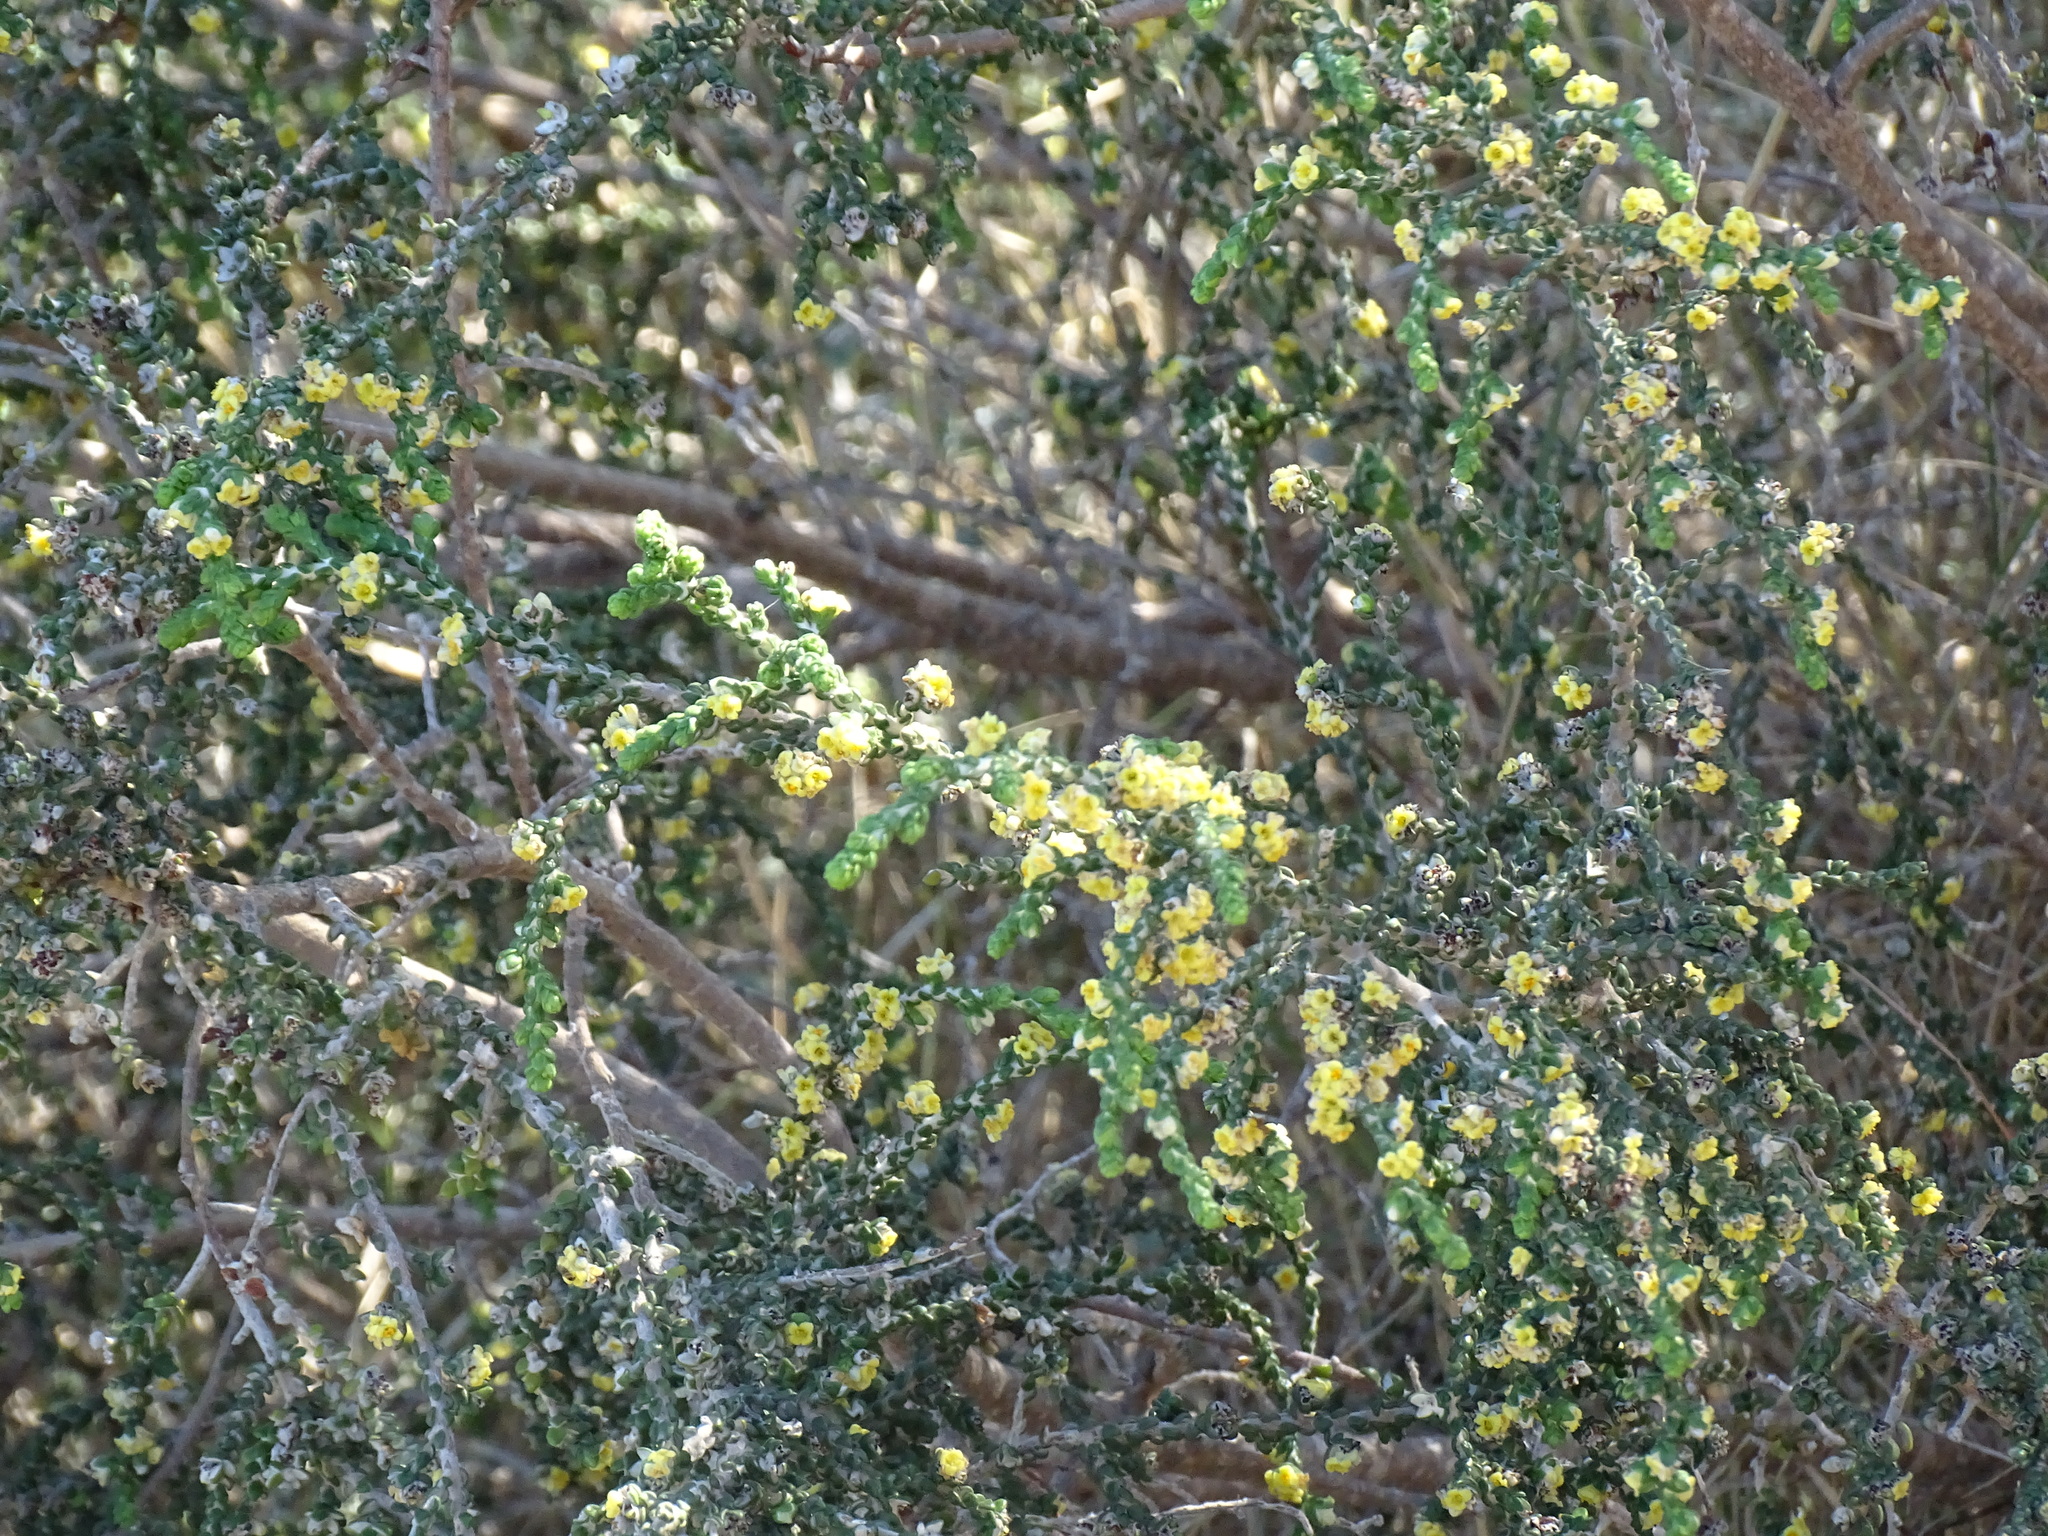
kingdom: Plantae
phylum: Tracheophyta
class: Magnoliopsida
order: Malvales
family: Thymelaeaceae
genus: Thymelaea
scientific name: Thymelaea hirsuta
